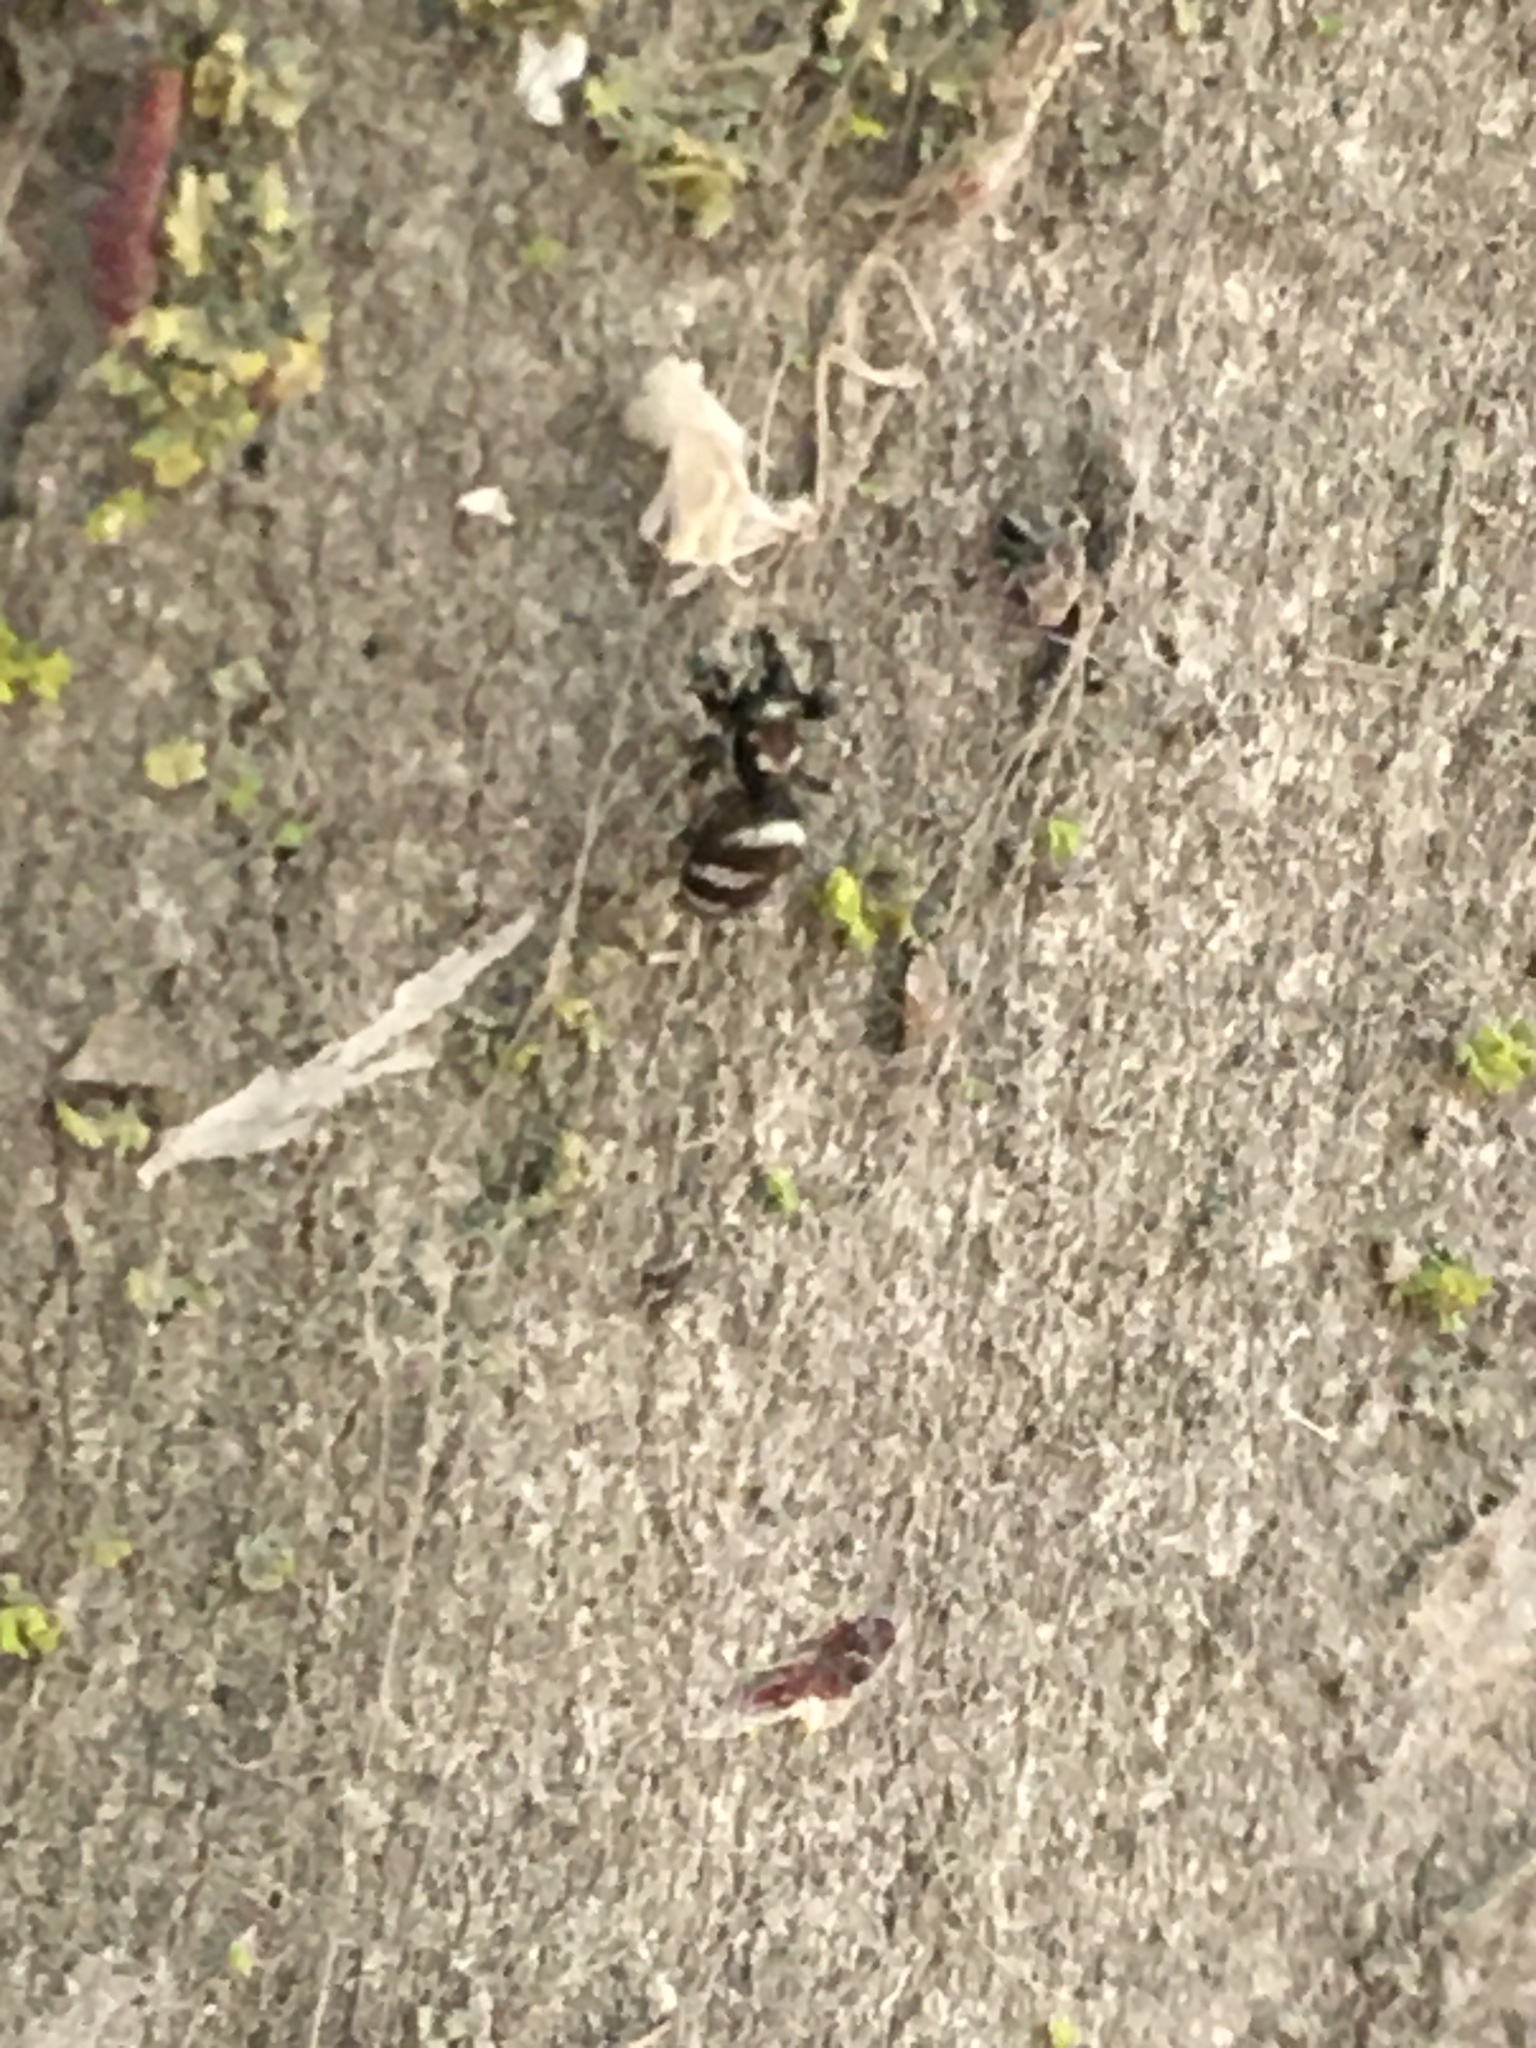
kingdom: Animalia
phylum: Arthropoda
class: Arachnida
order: Araneae
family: Salticidae
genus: Salticus
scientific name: Salticus scenicus
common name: Zebra jumper
